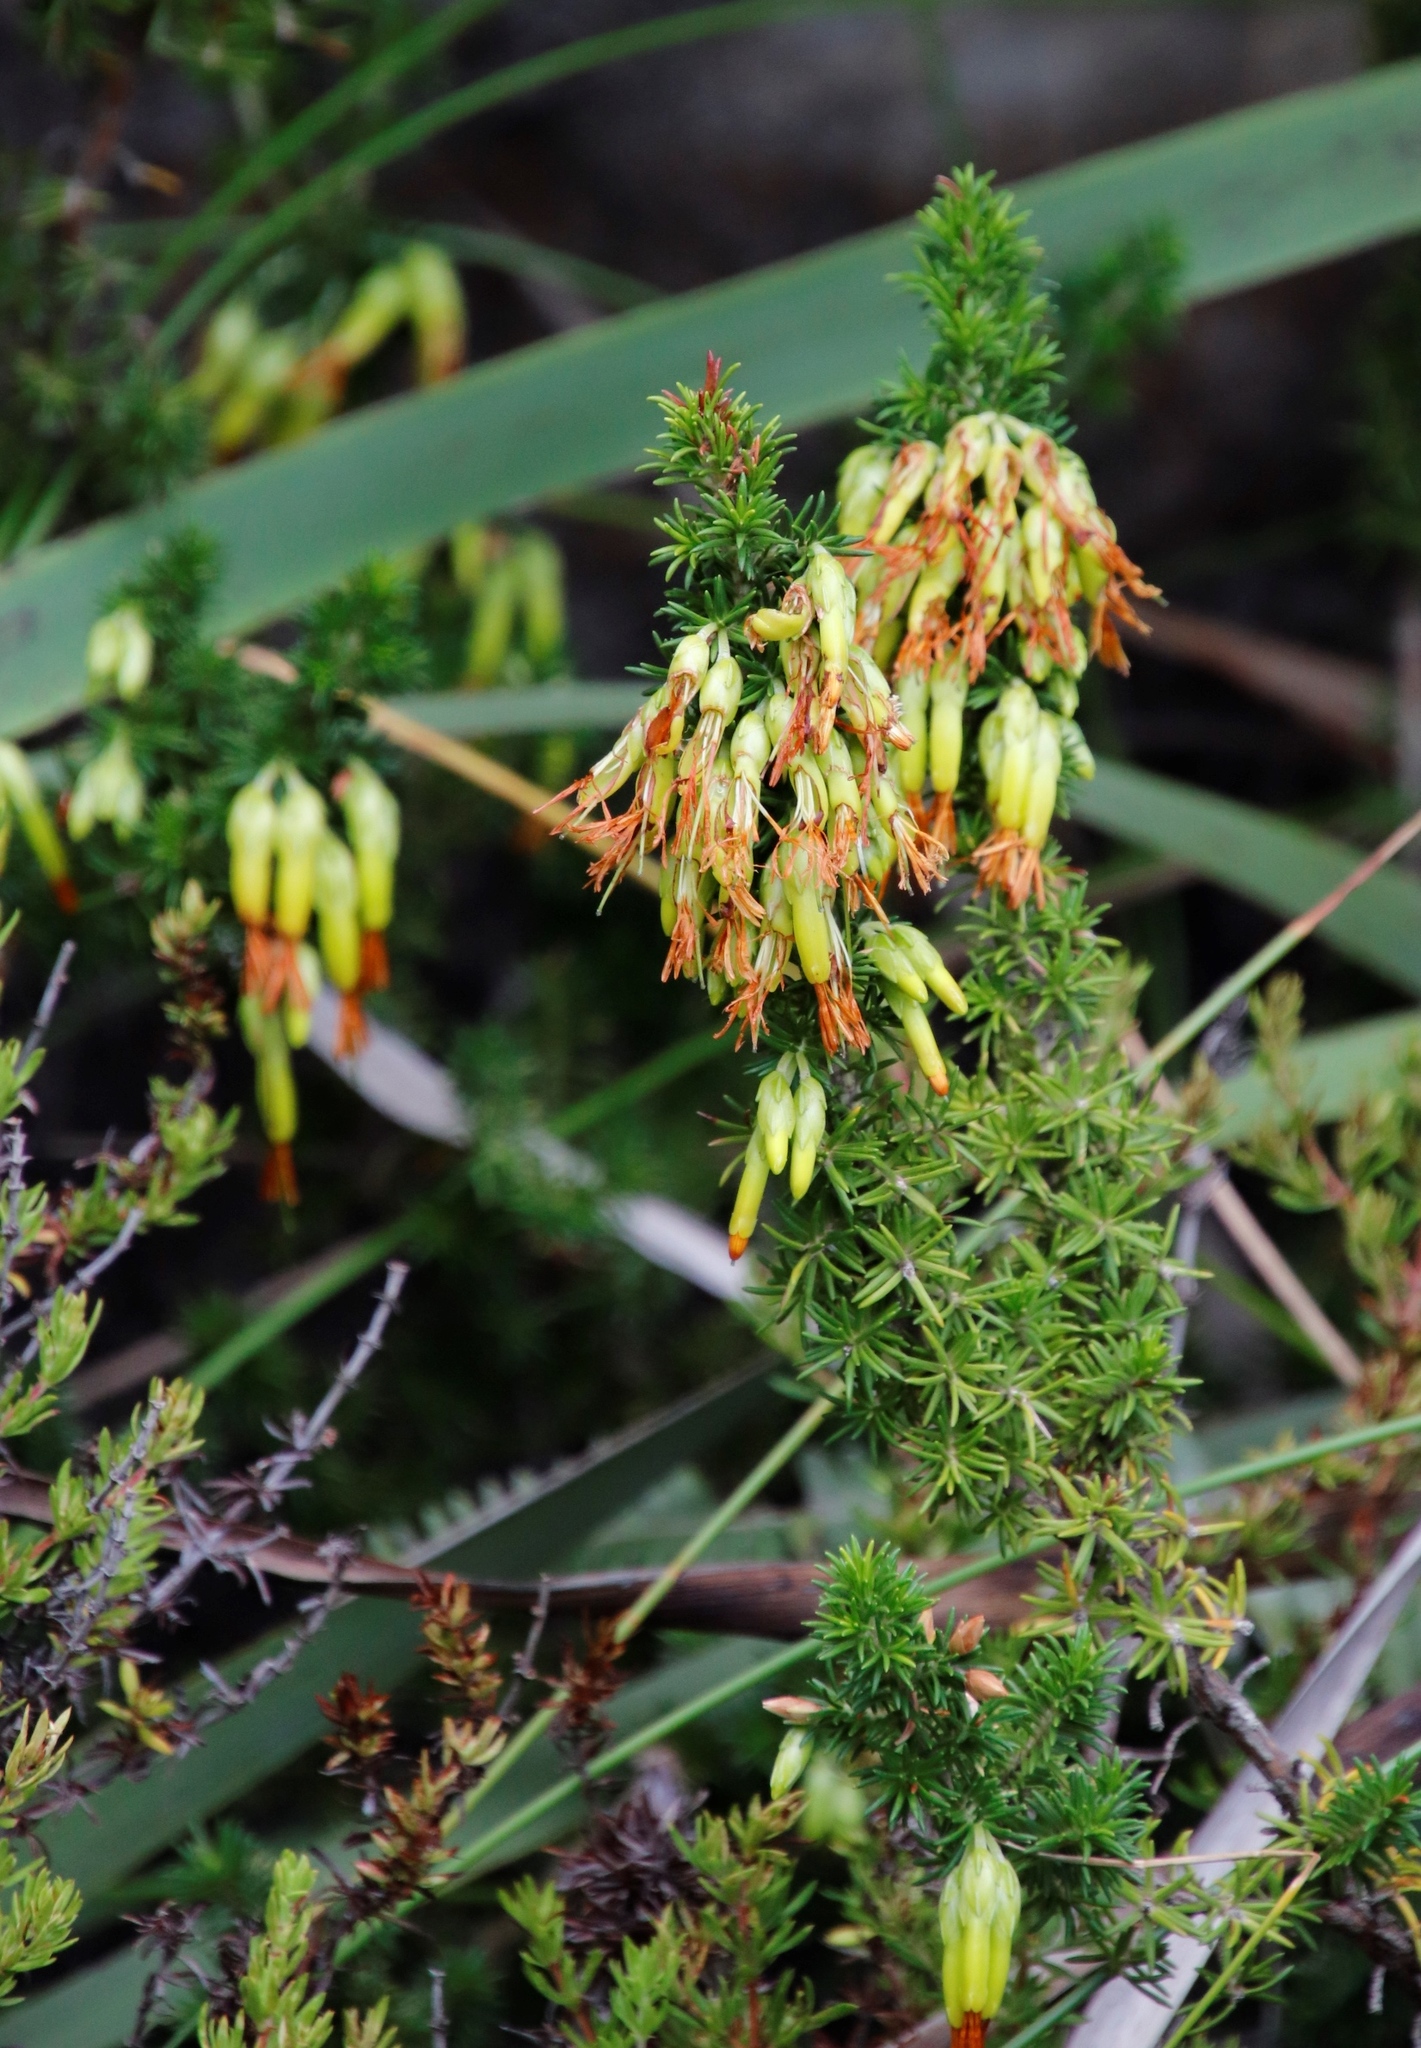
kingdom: Plantae
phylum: Tracheophyta
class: Magnoliopsida
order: Ericales
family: Ericaceae
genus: Erica
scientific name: Erica coccinea
